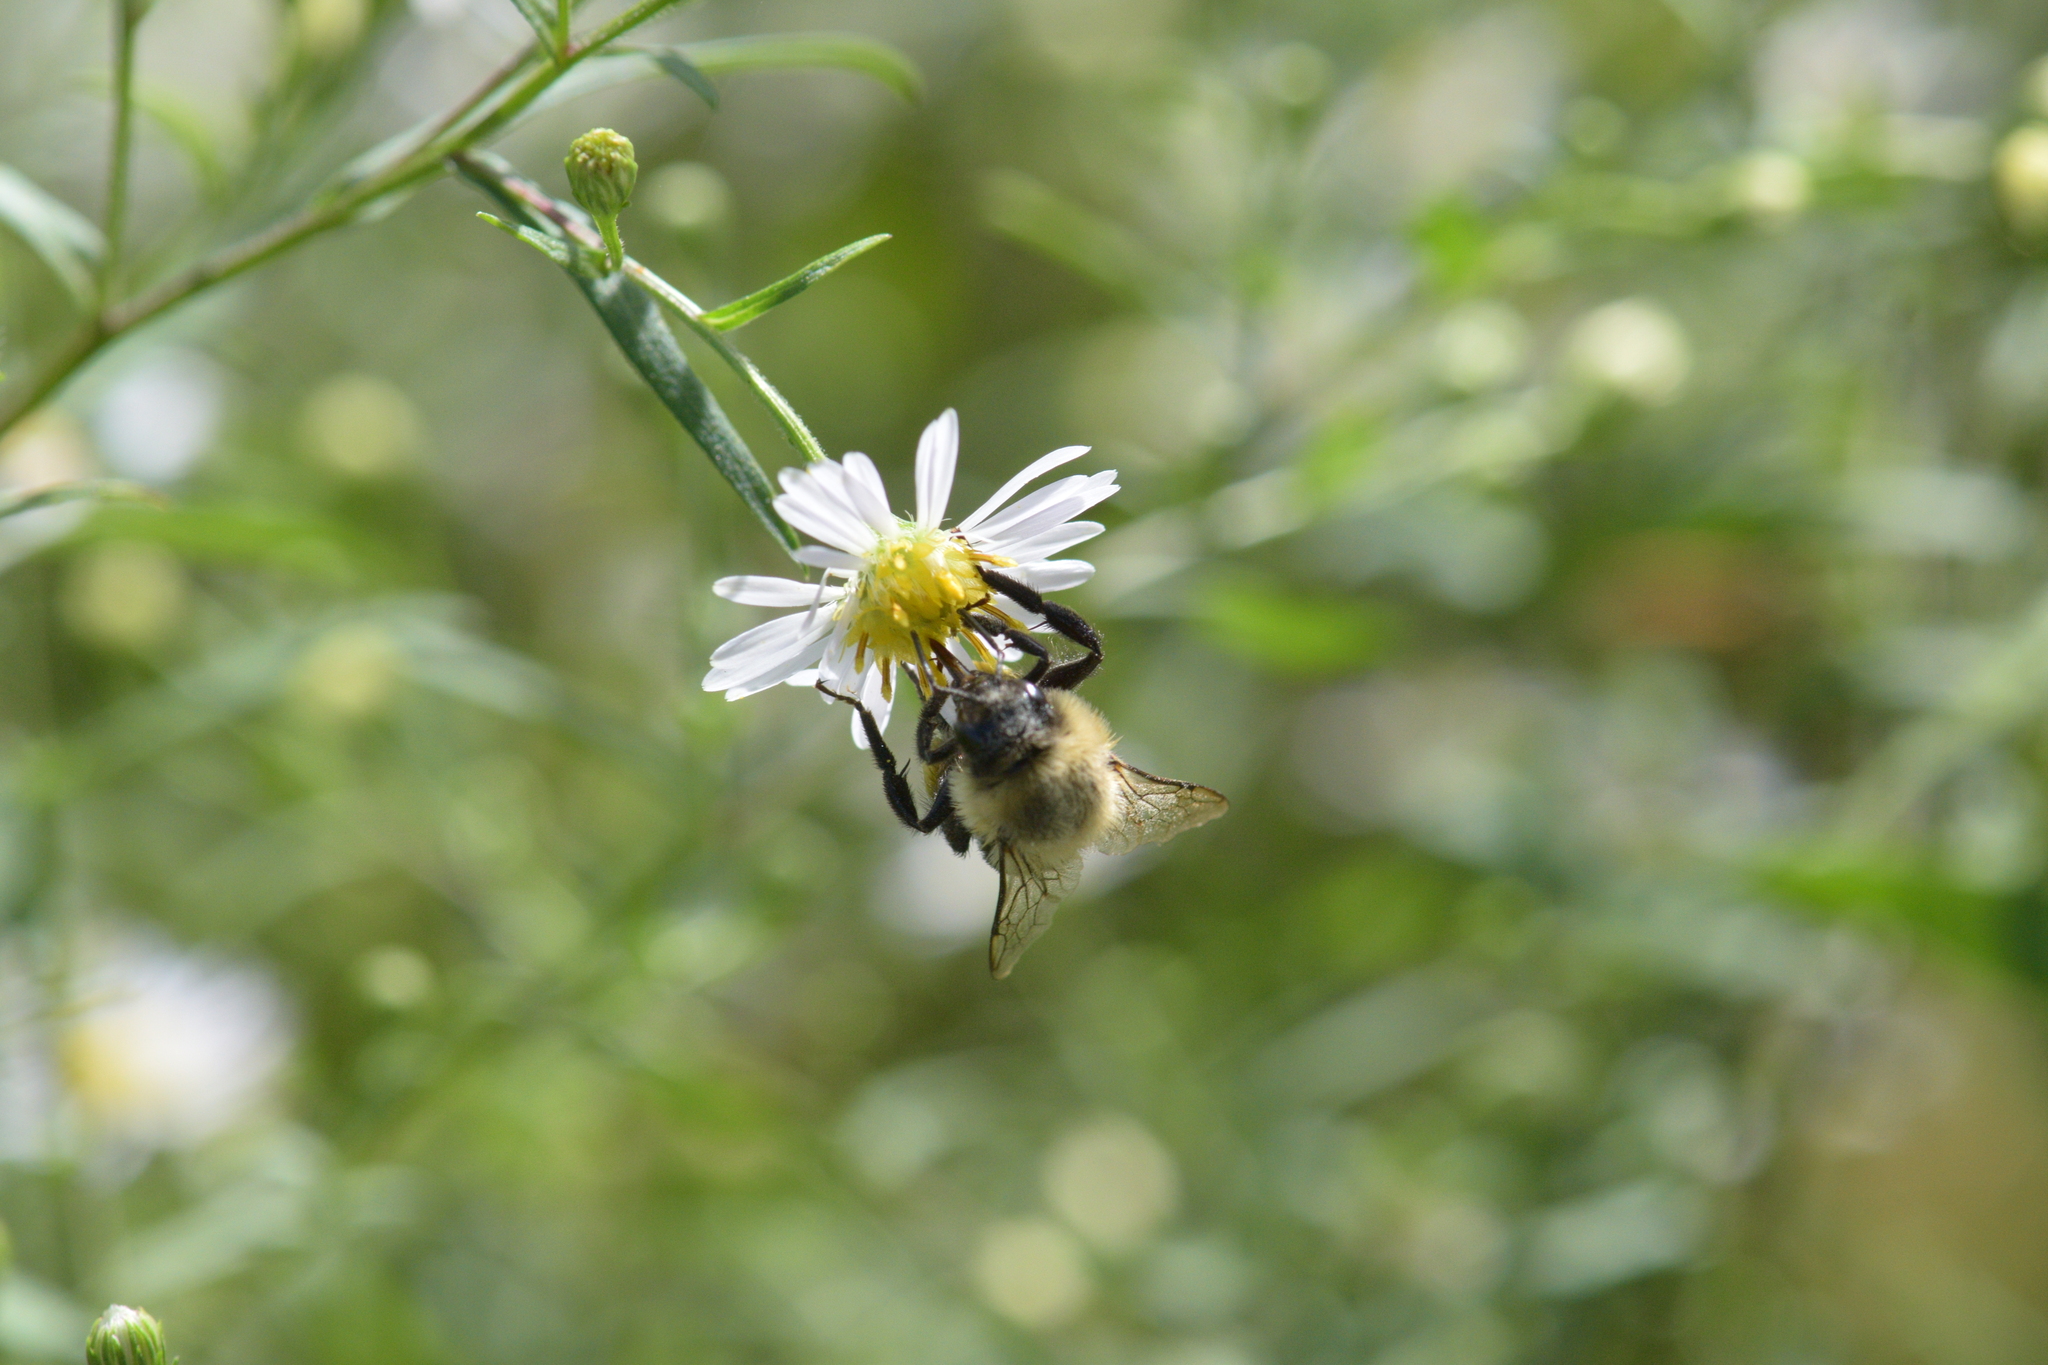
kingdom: Animalia
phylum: Arthropoda
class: Insecta
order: Hymenoptera
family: Apidae
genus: Bombus
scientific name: Bombus impatiens
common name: Common eastern bumble bee
